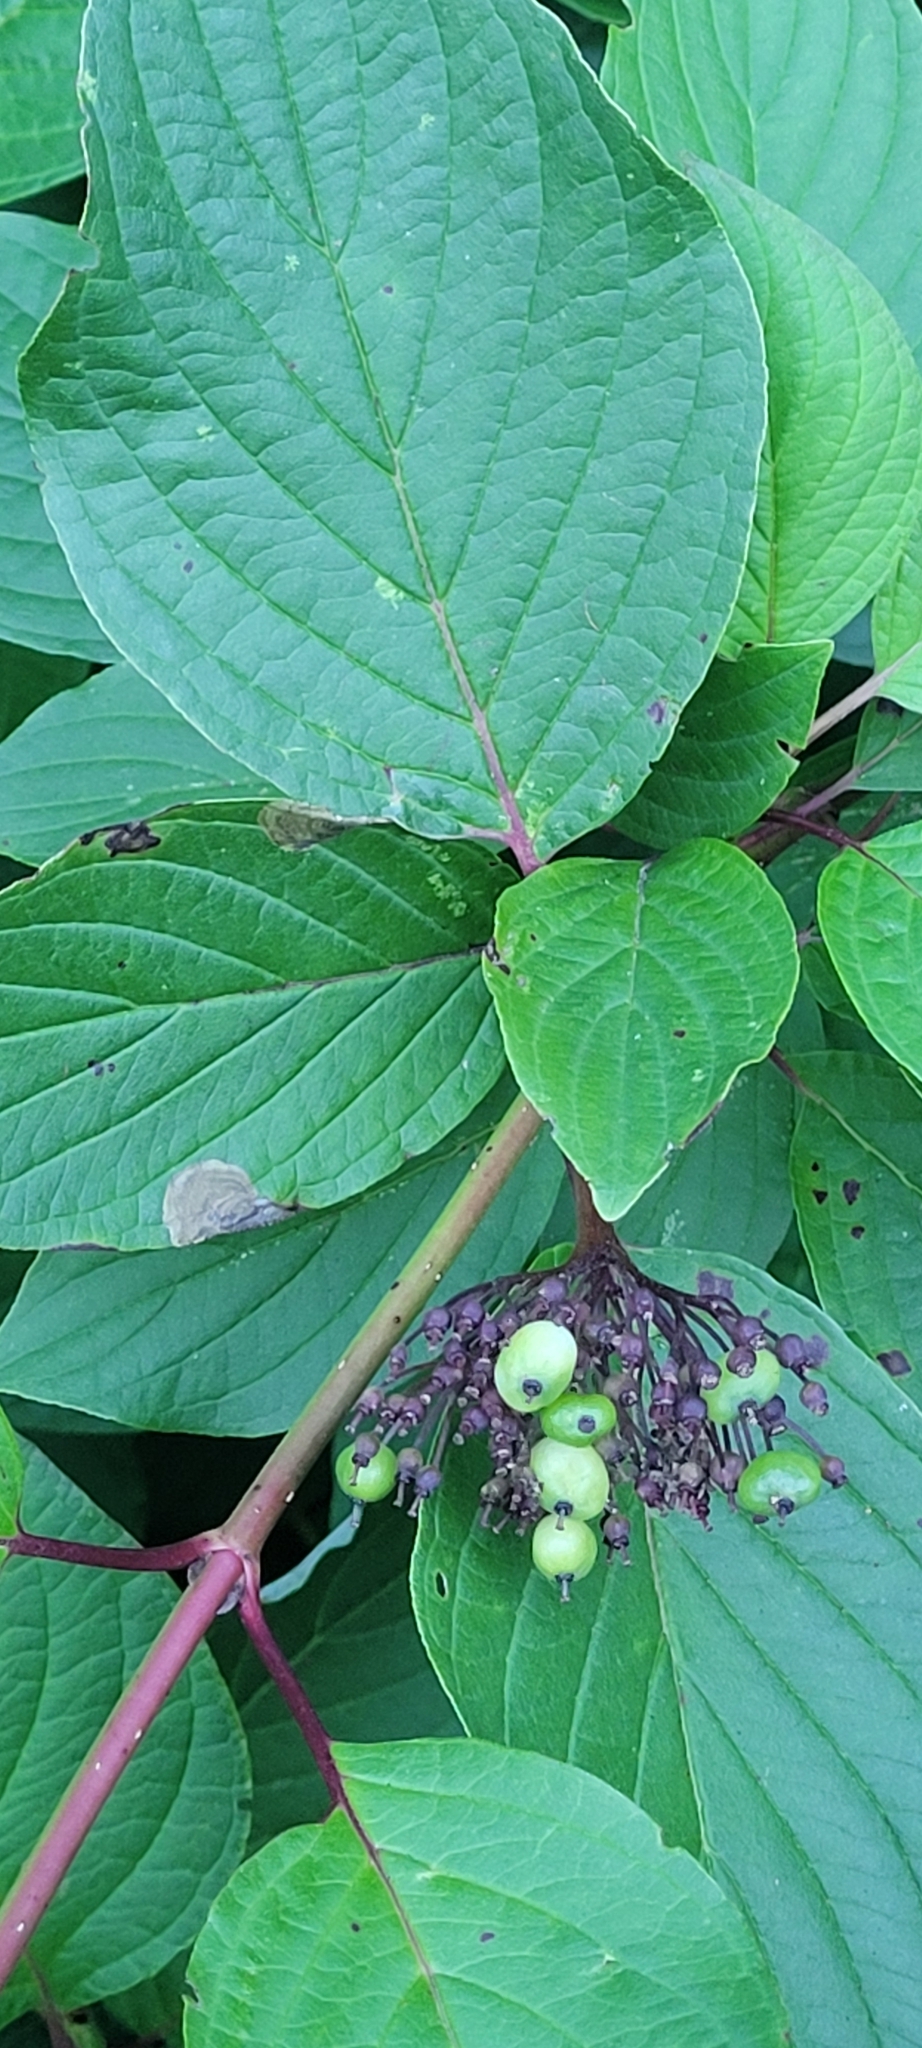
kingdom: Plantae
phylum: Tracheophyta
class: Magnoliopsida
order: Cornales
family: Cornaceae
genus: Cornus
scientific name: Cornus sericea
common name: Red-osier dogwood
